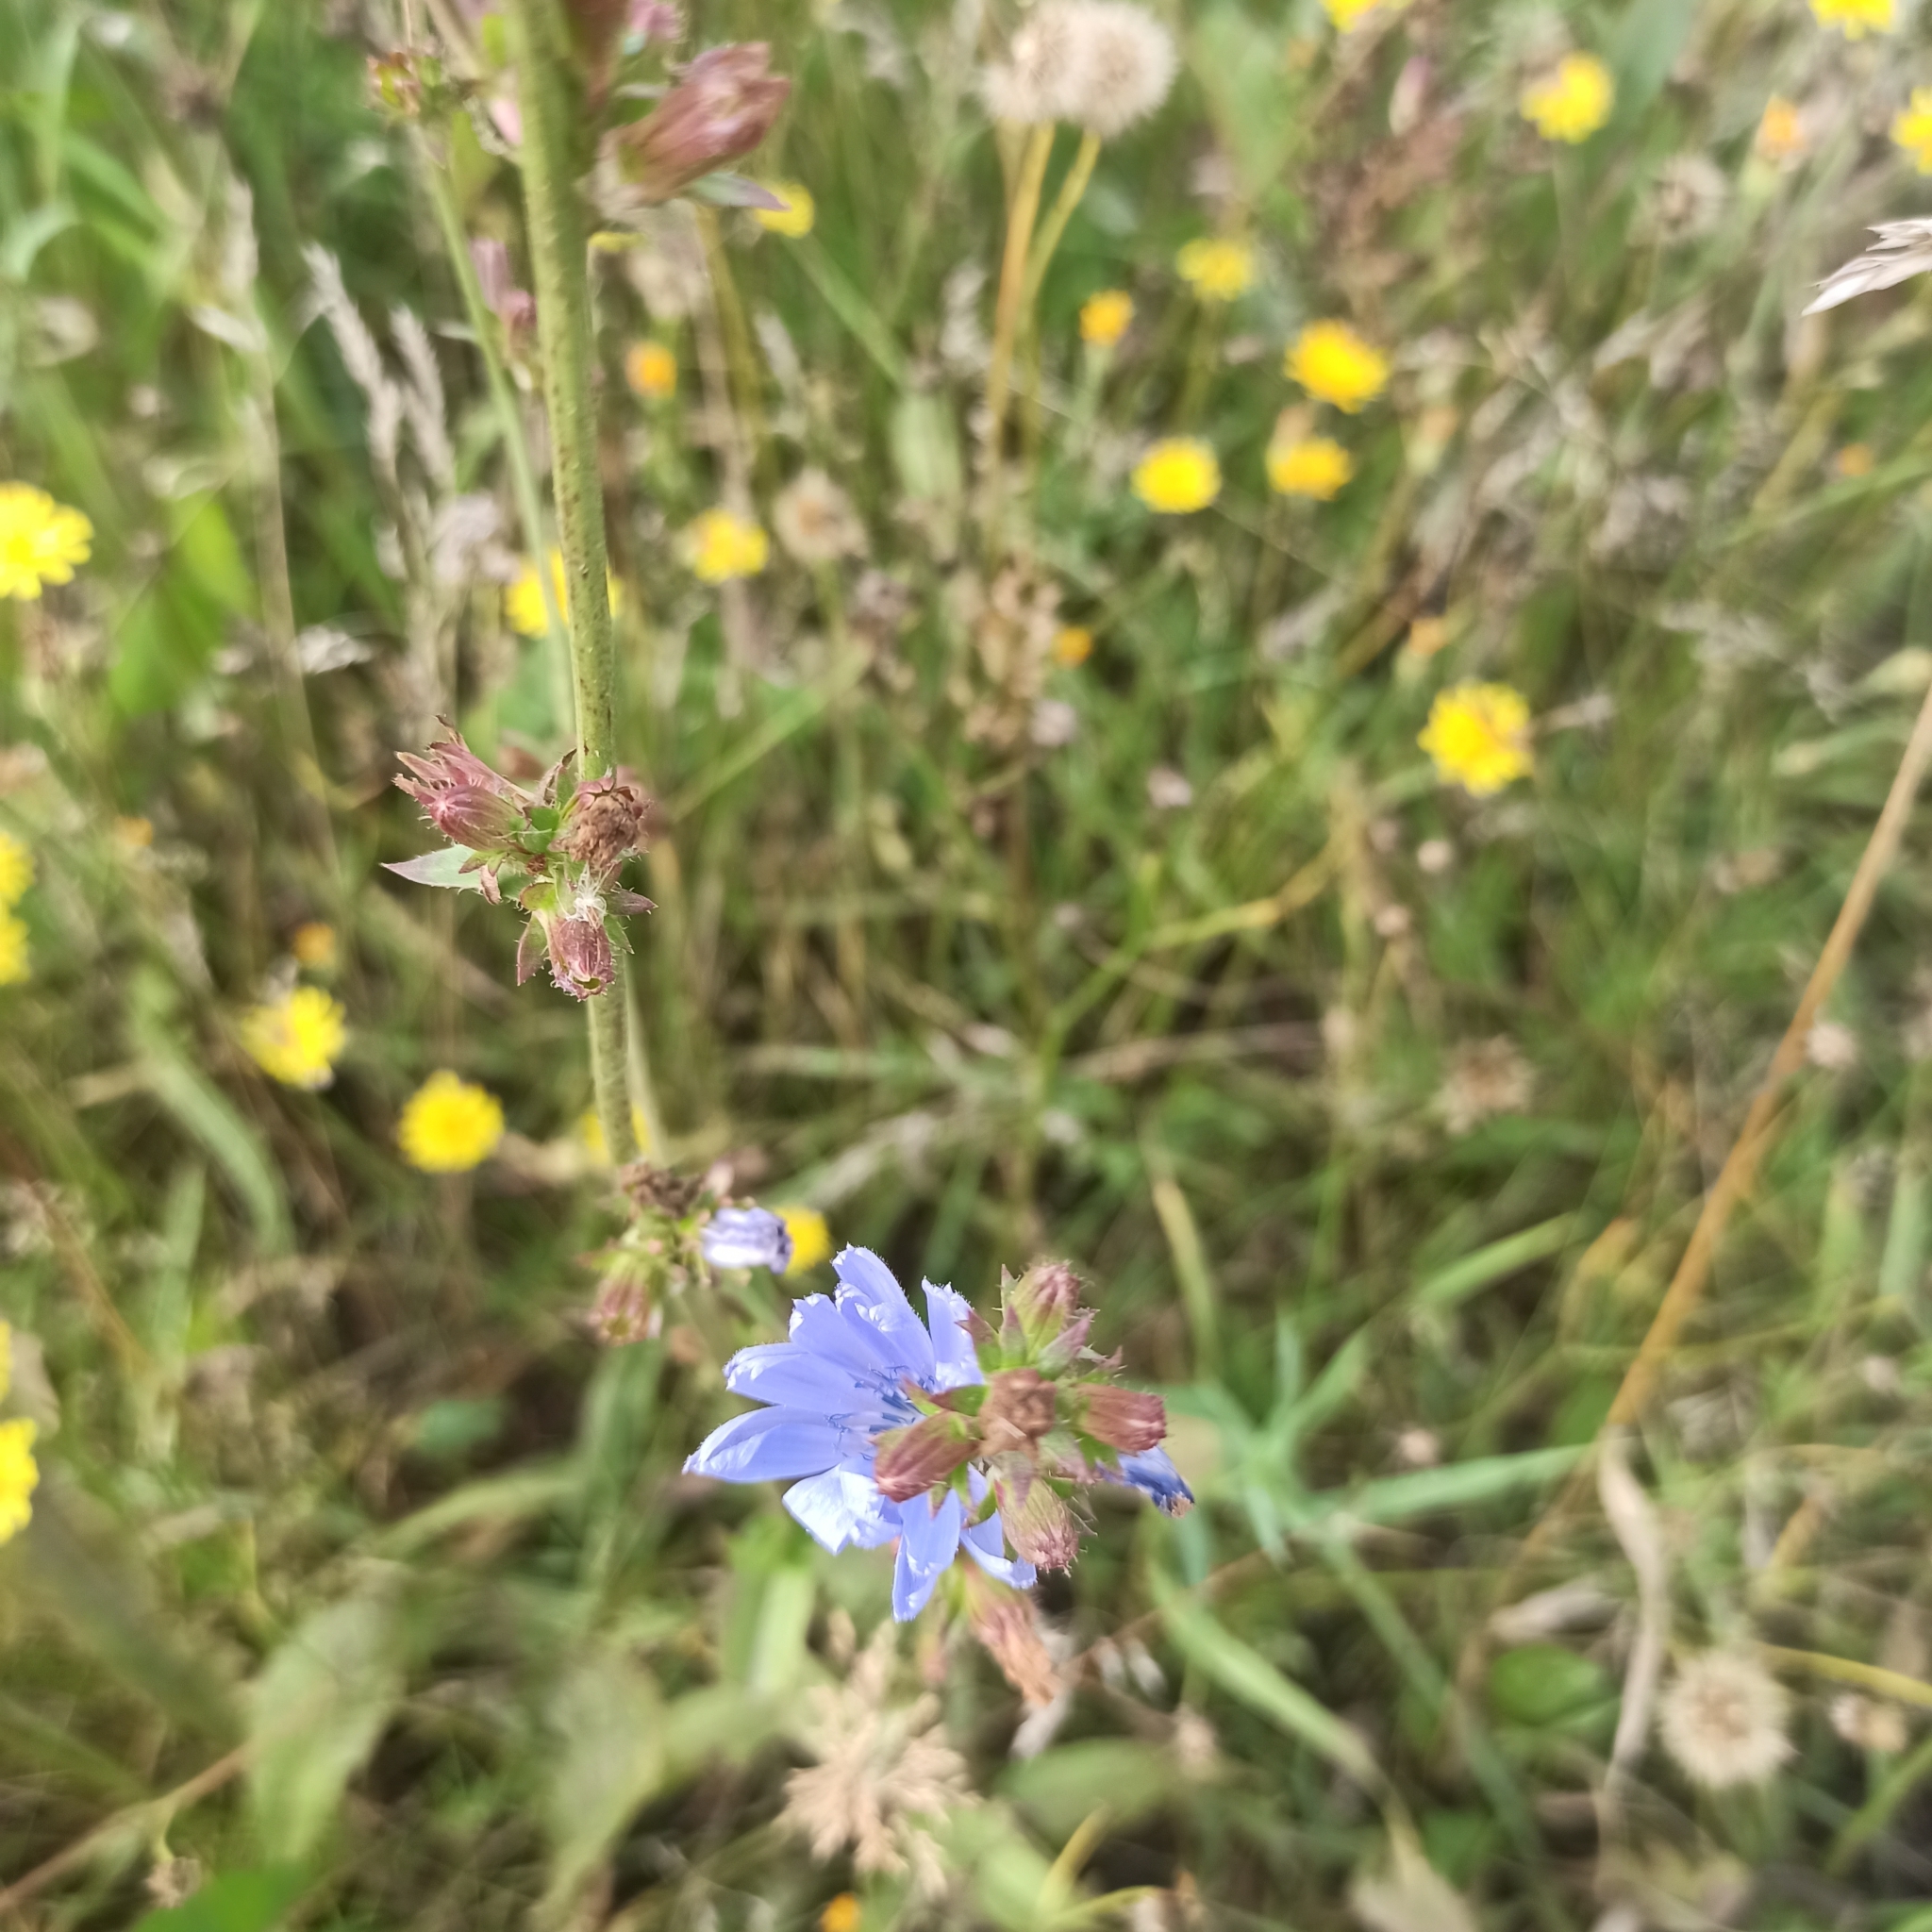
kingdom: Plantae
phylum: Tracheophyta
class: Magnoliopsida
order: Asterales
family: Asteraceae
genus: Cichorium
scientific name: Cichorium intybus
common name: Chicory
